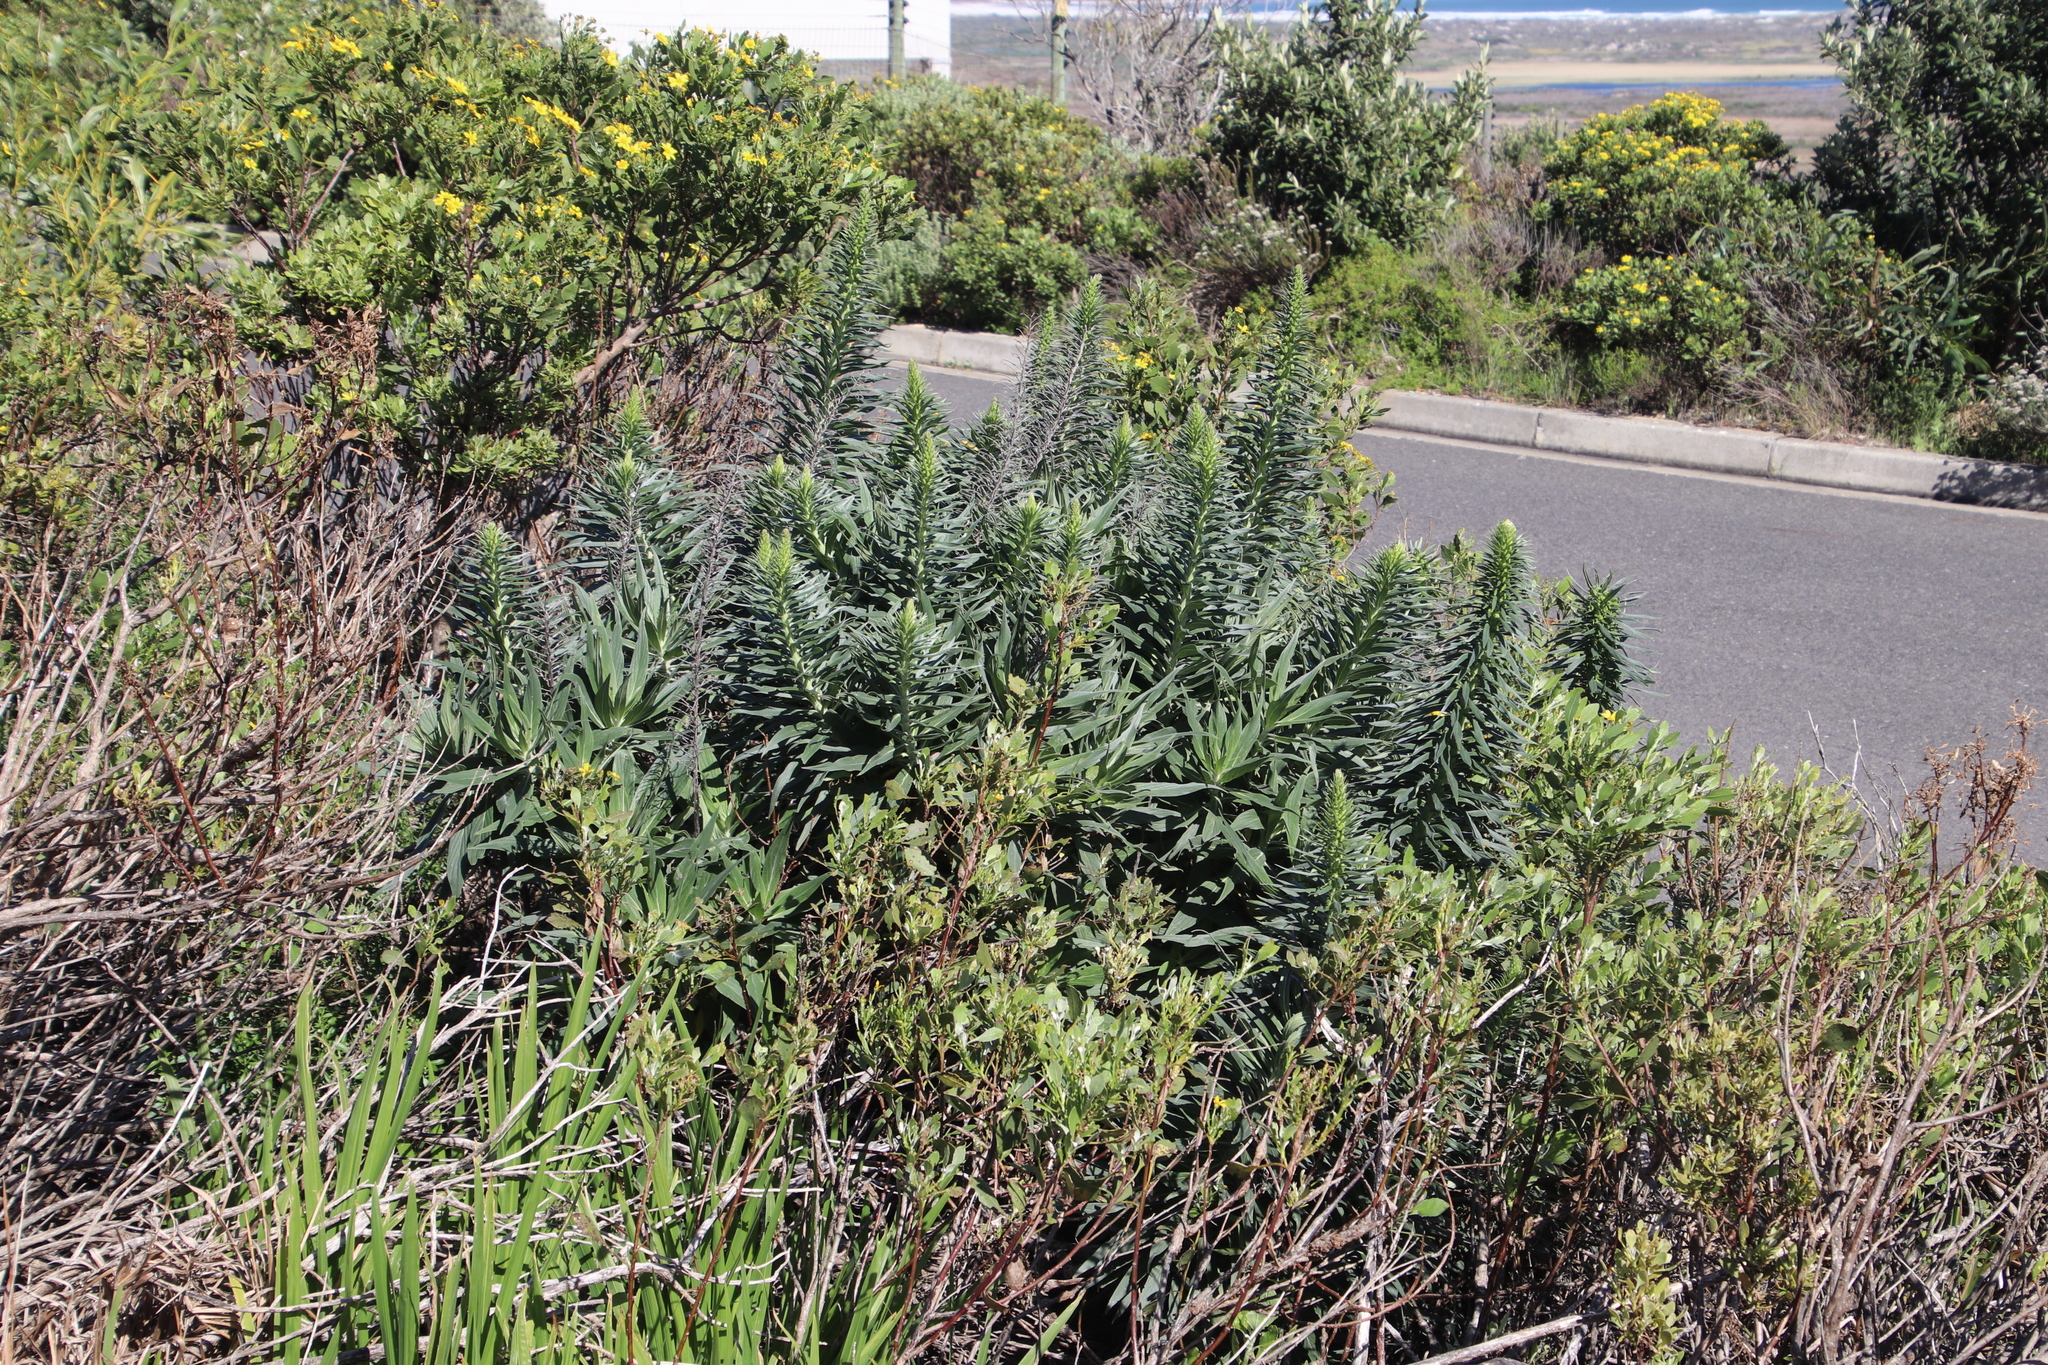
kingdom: Plantae
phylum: Tracheophyta
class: Magnoliopsida
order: Boraginales
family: Boraginaceae
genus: Echium
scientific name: Echium candicans
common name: Pride of madeira
